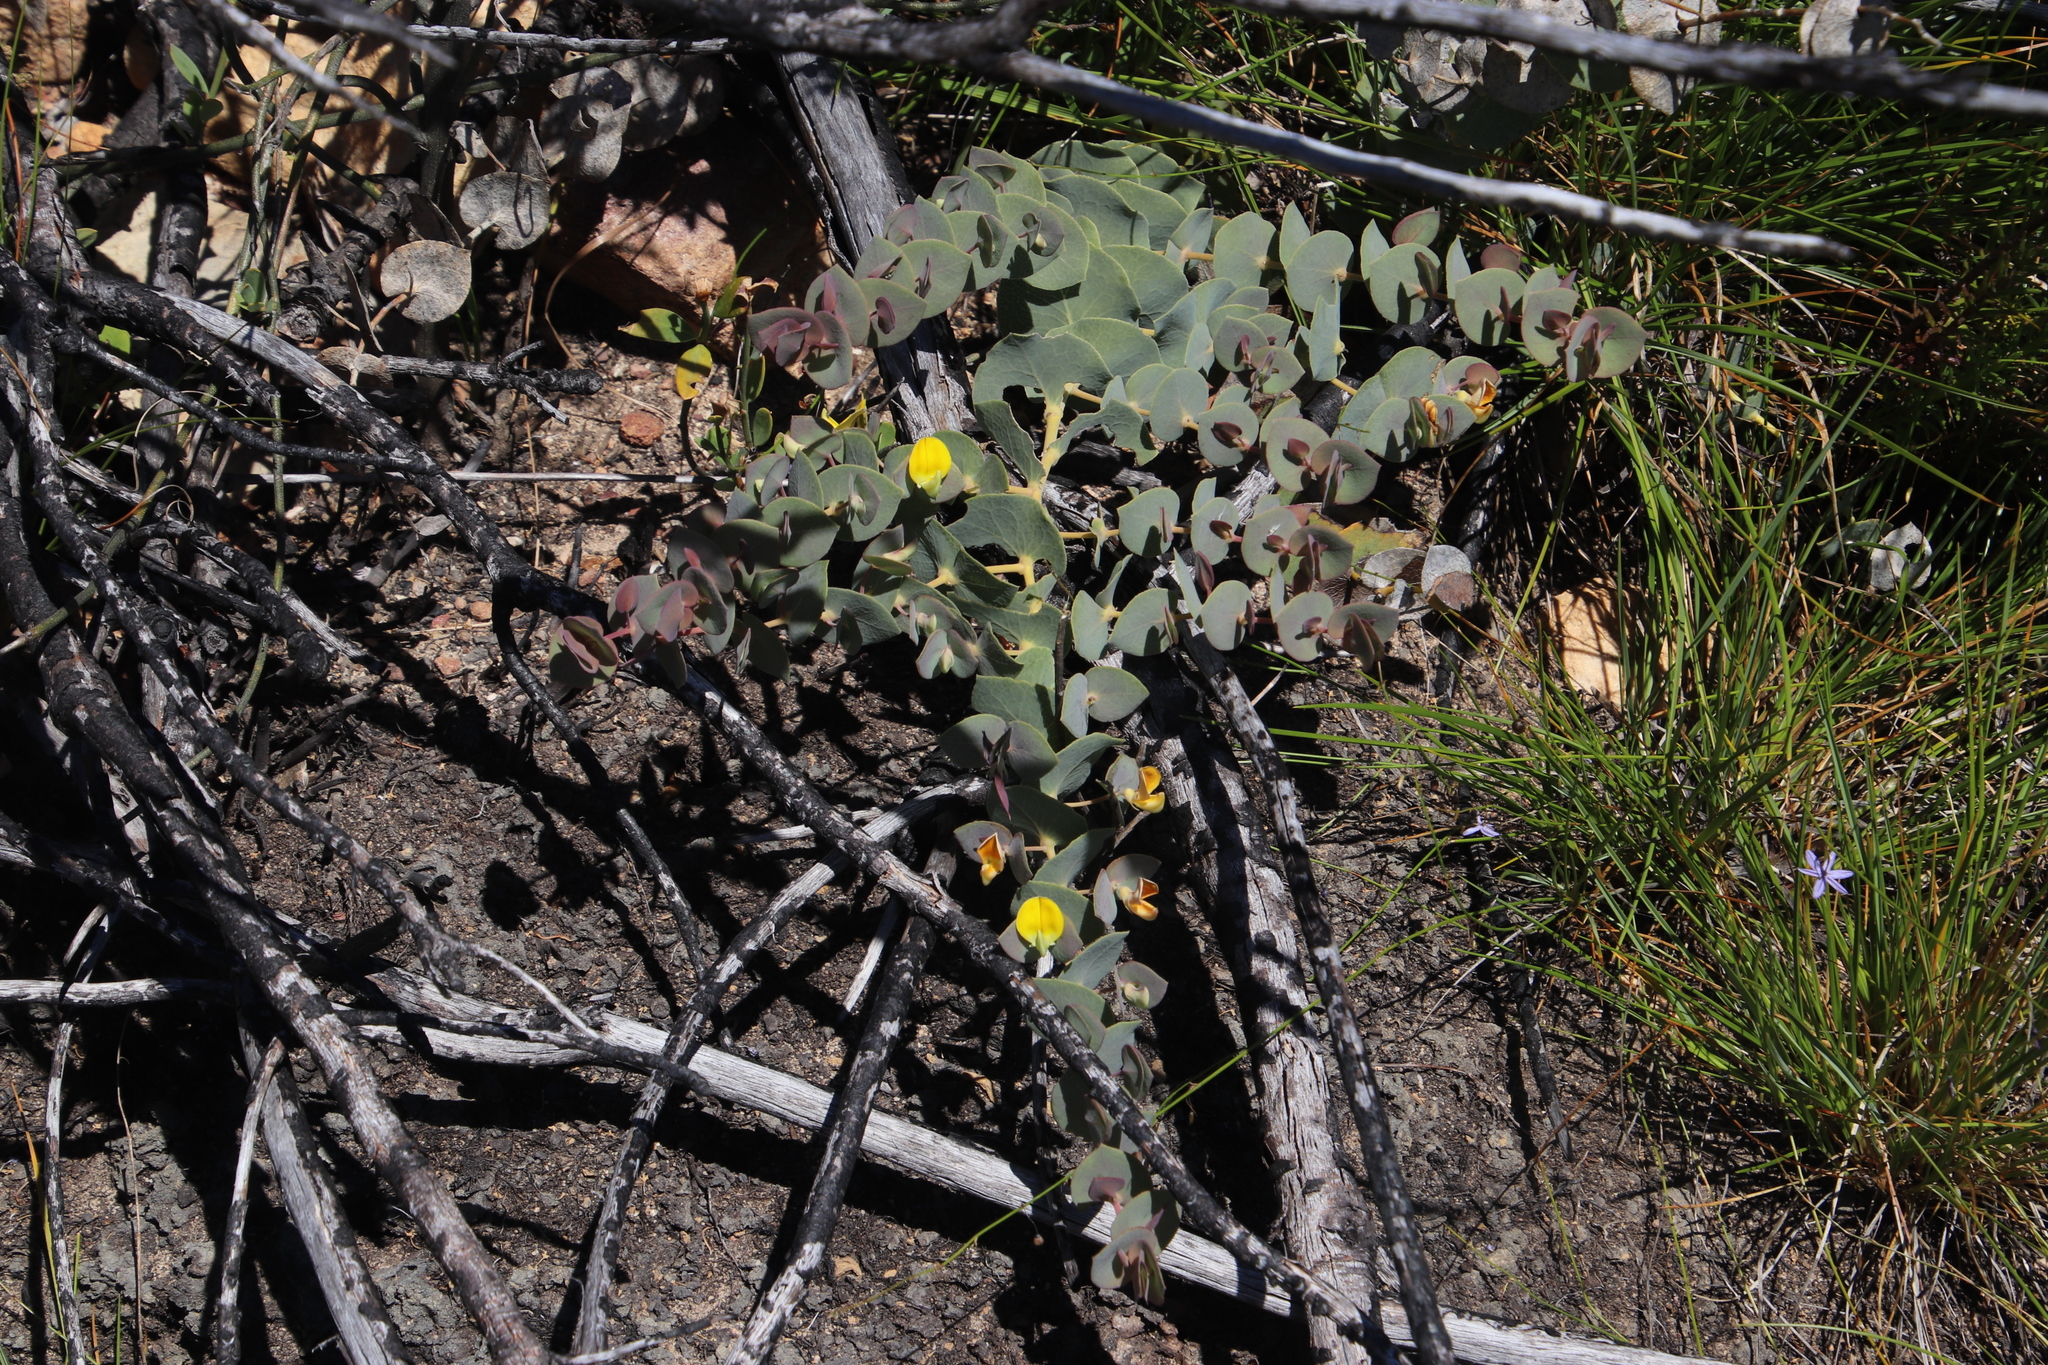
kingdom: Plantae
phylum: Tracheophyta
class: Magnoliopsida
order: Fabales
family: Fabaceae
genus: Rafnia
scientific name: Rafnia acuminata
